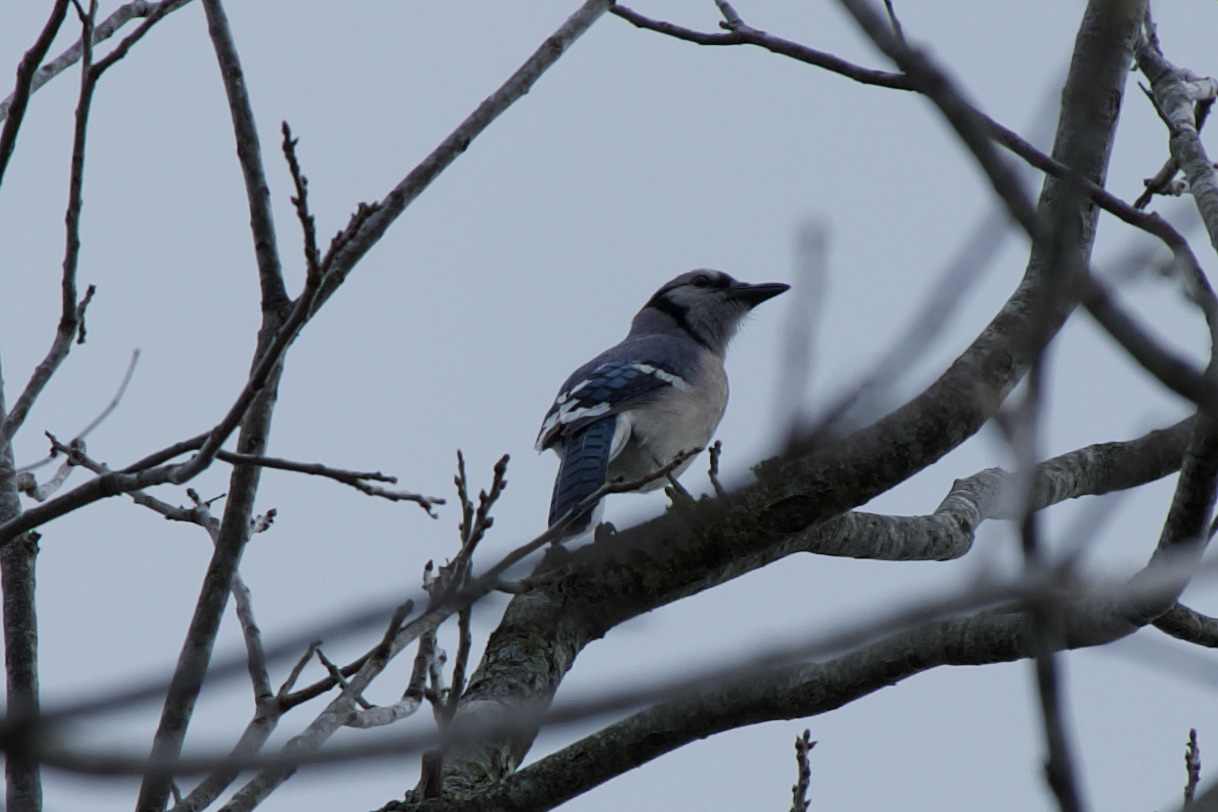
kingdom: Animalia
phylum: Chordata
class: Aves
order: Passeriformes
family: Corvidae
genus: Cyanocitta
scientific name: Cyanocitta cristata
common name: Blue jay
